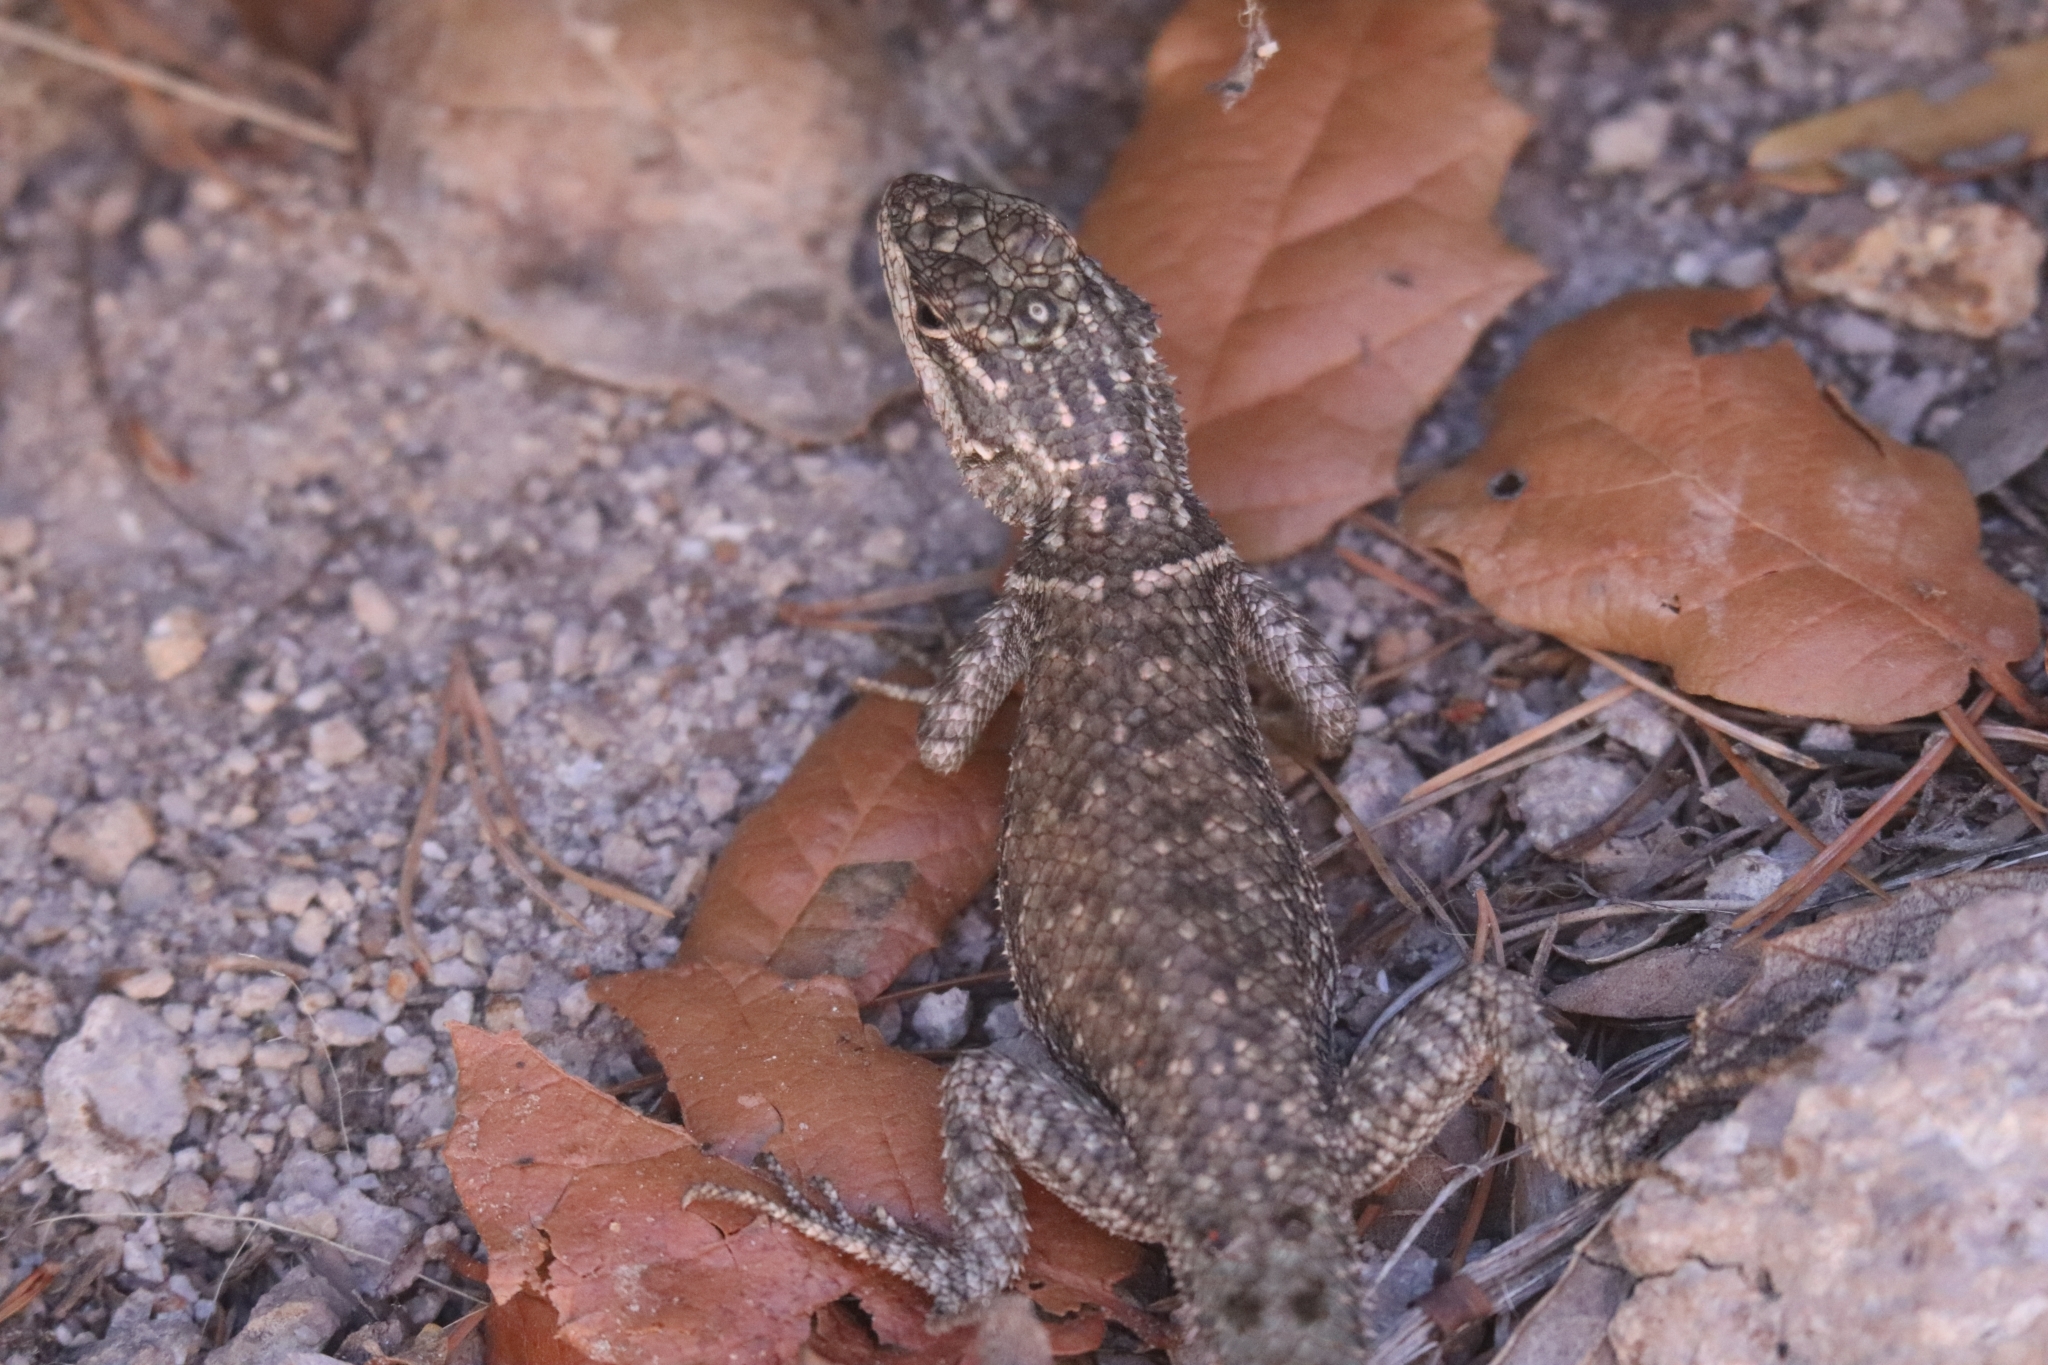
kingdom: Animalia
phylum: Chordata
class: Squamata
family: Phrynosomatidae
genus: Sceloporus
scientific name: Sceloporus jarrovii
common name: Yarrow's spiny lizard
